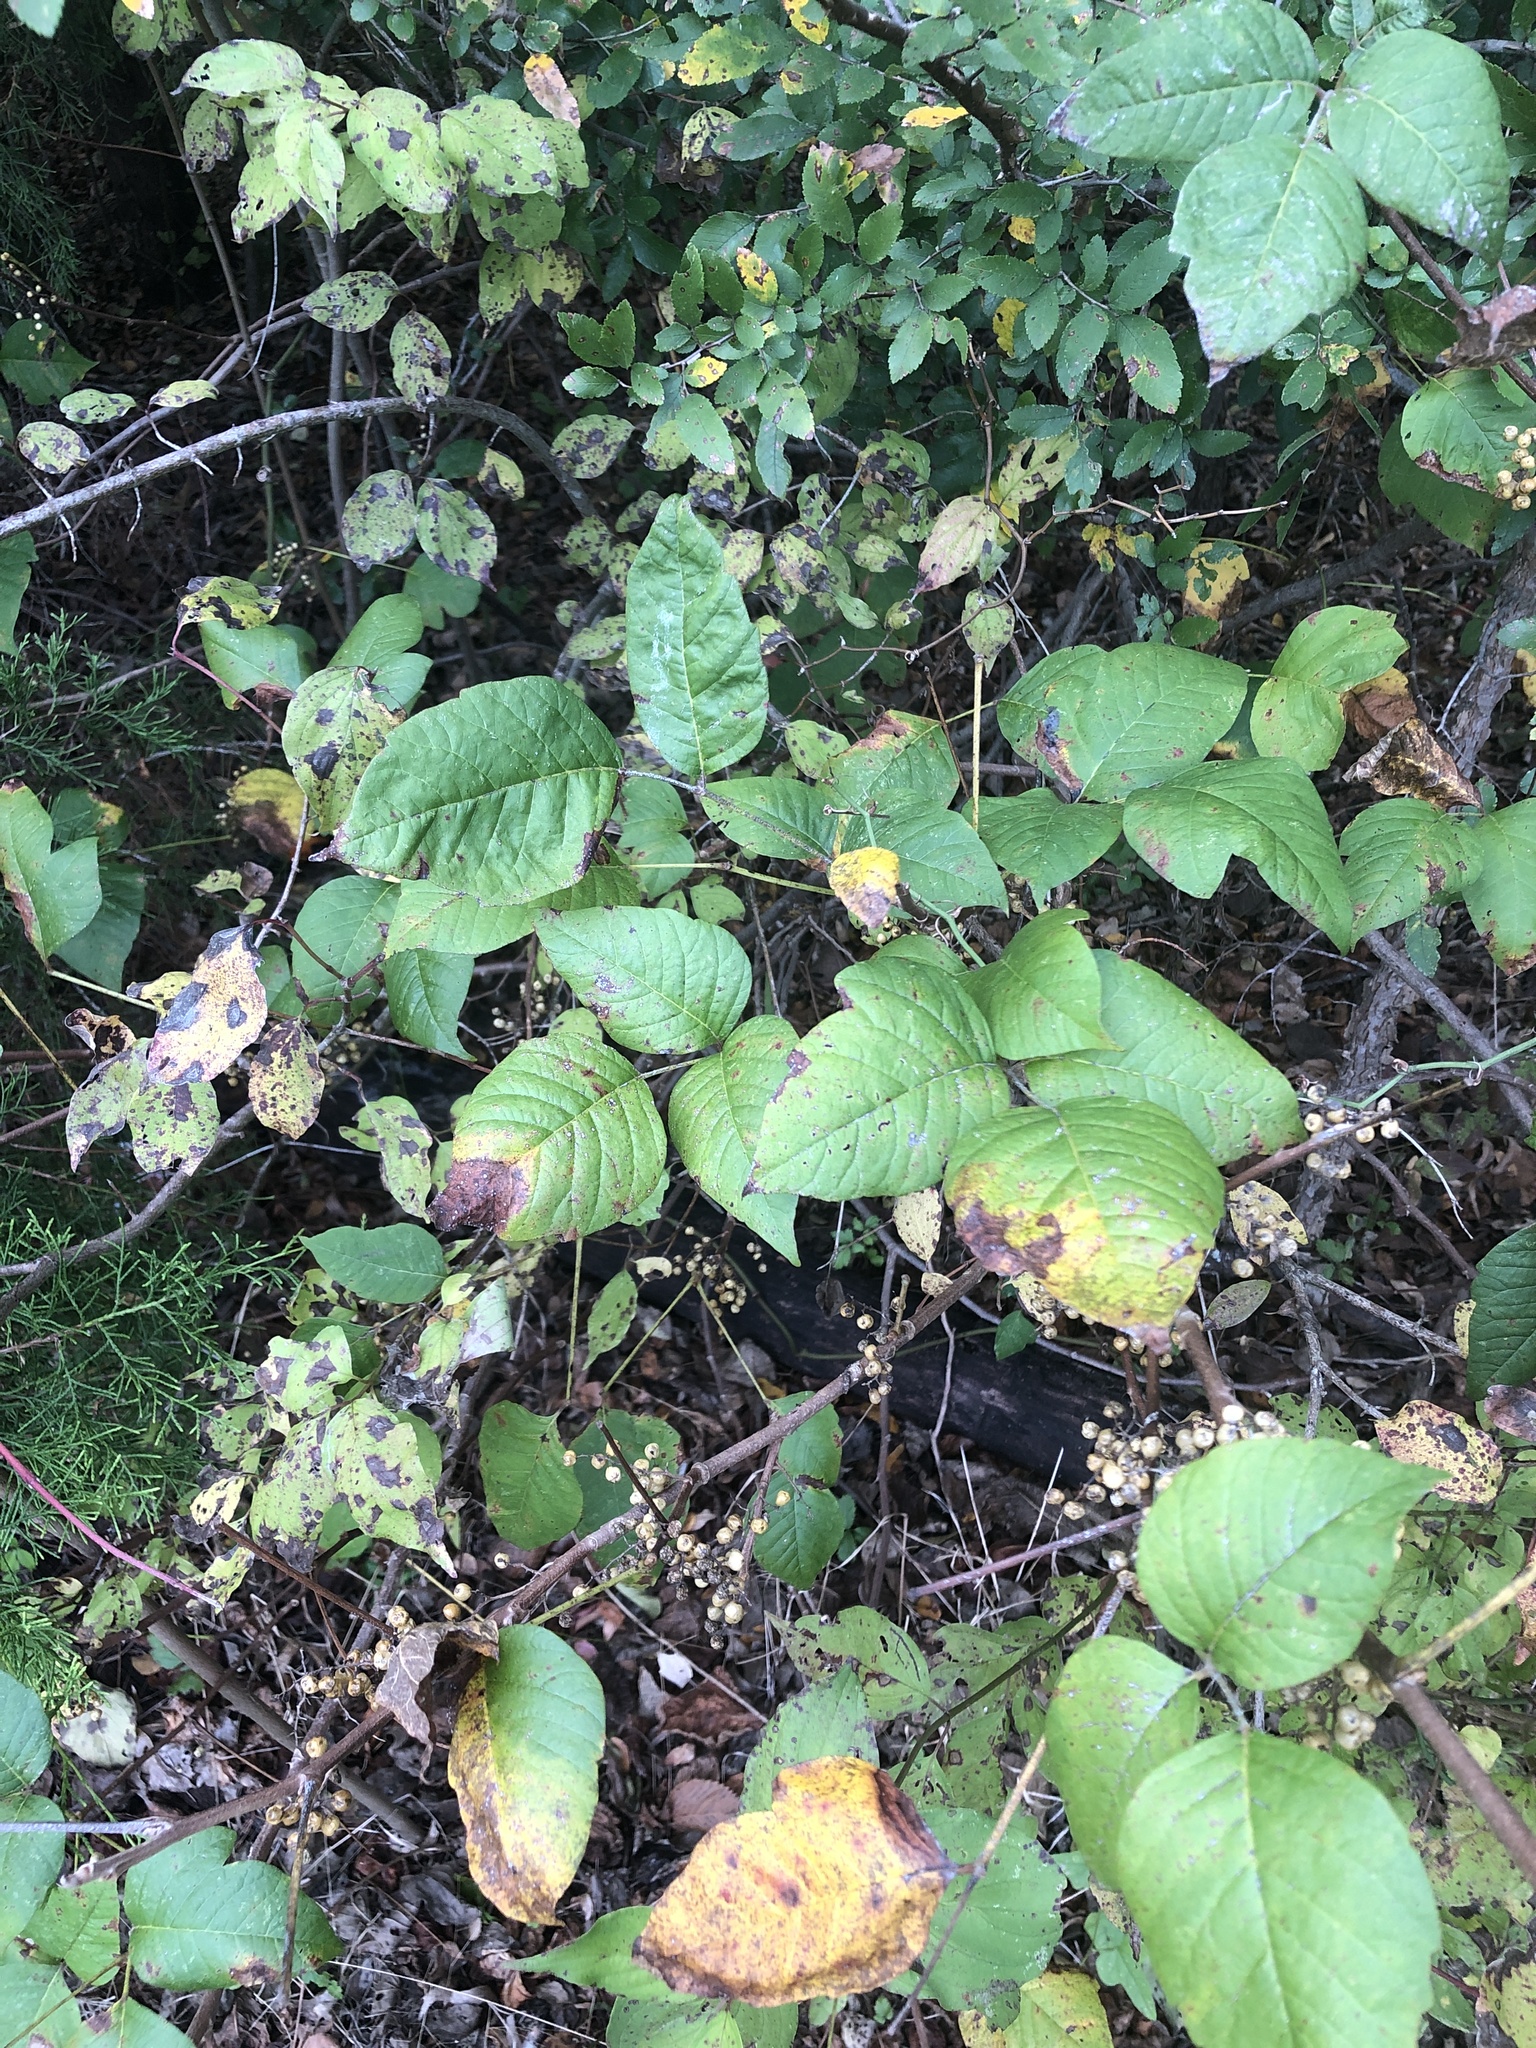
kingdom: Plantae
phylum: Tracheophyta
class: Magnoliopsida
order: Sapindales
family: Anacardiaceae
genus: Toxicodendron
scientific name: Toxicodendron radicans
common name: Poison ivy
